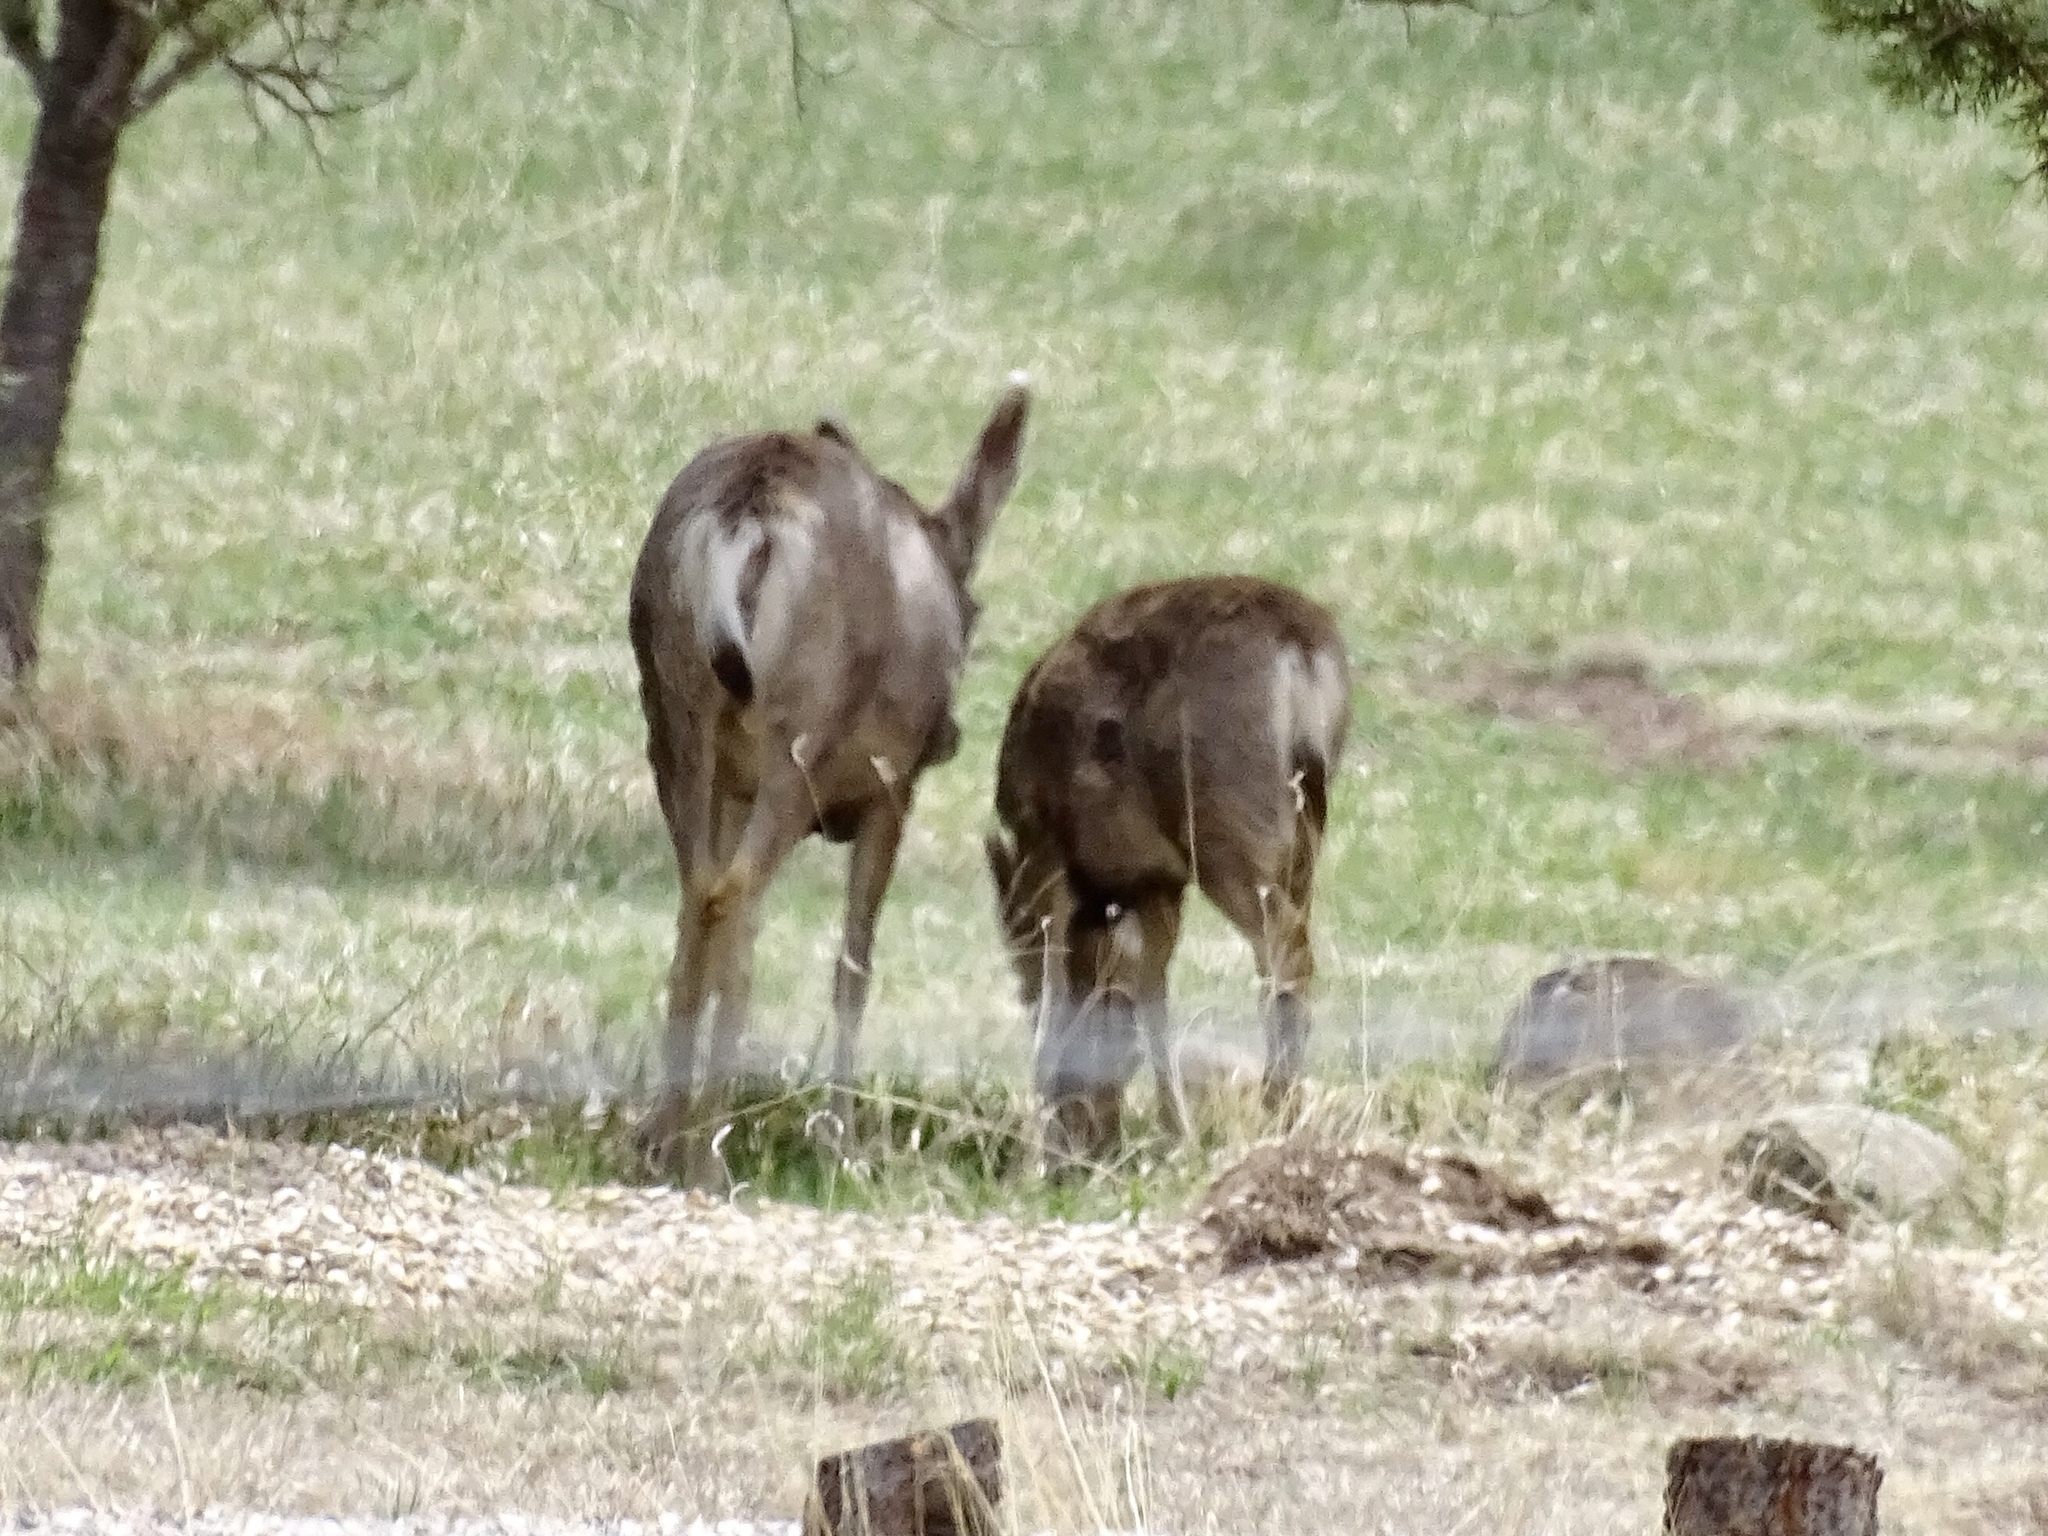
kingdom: Animalia
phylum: Chordata
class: Mammalia
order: Artiodactyla
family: Cervidae
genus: Odocoileus
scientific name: Odocoileus hemionus
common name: Mule deer
